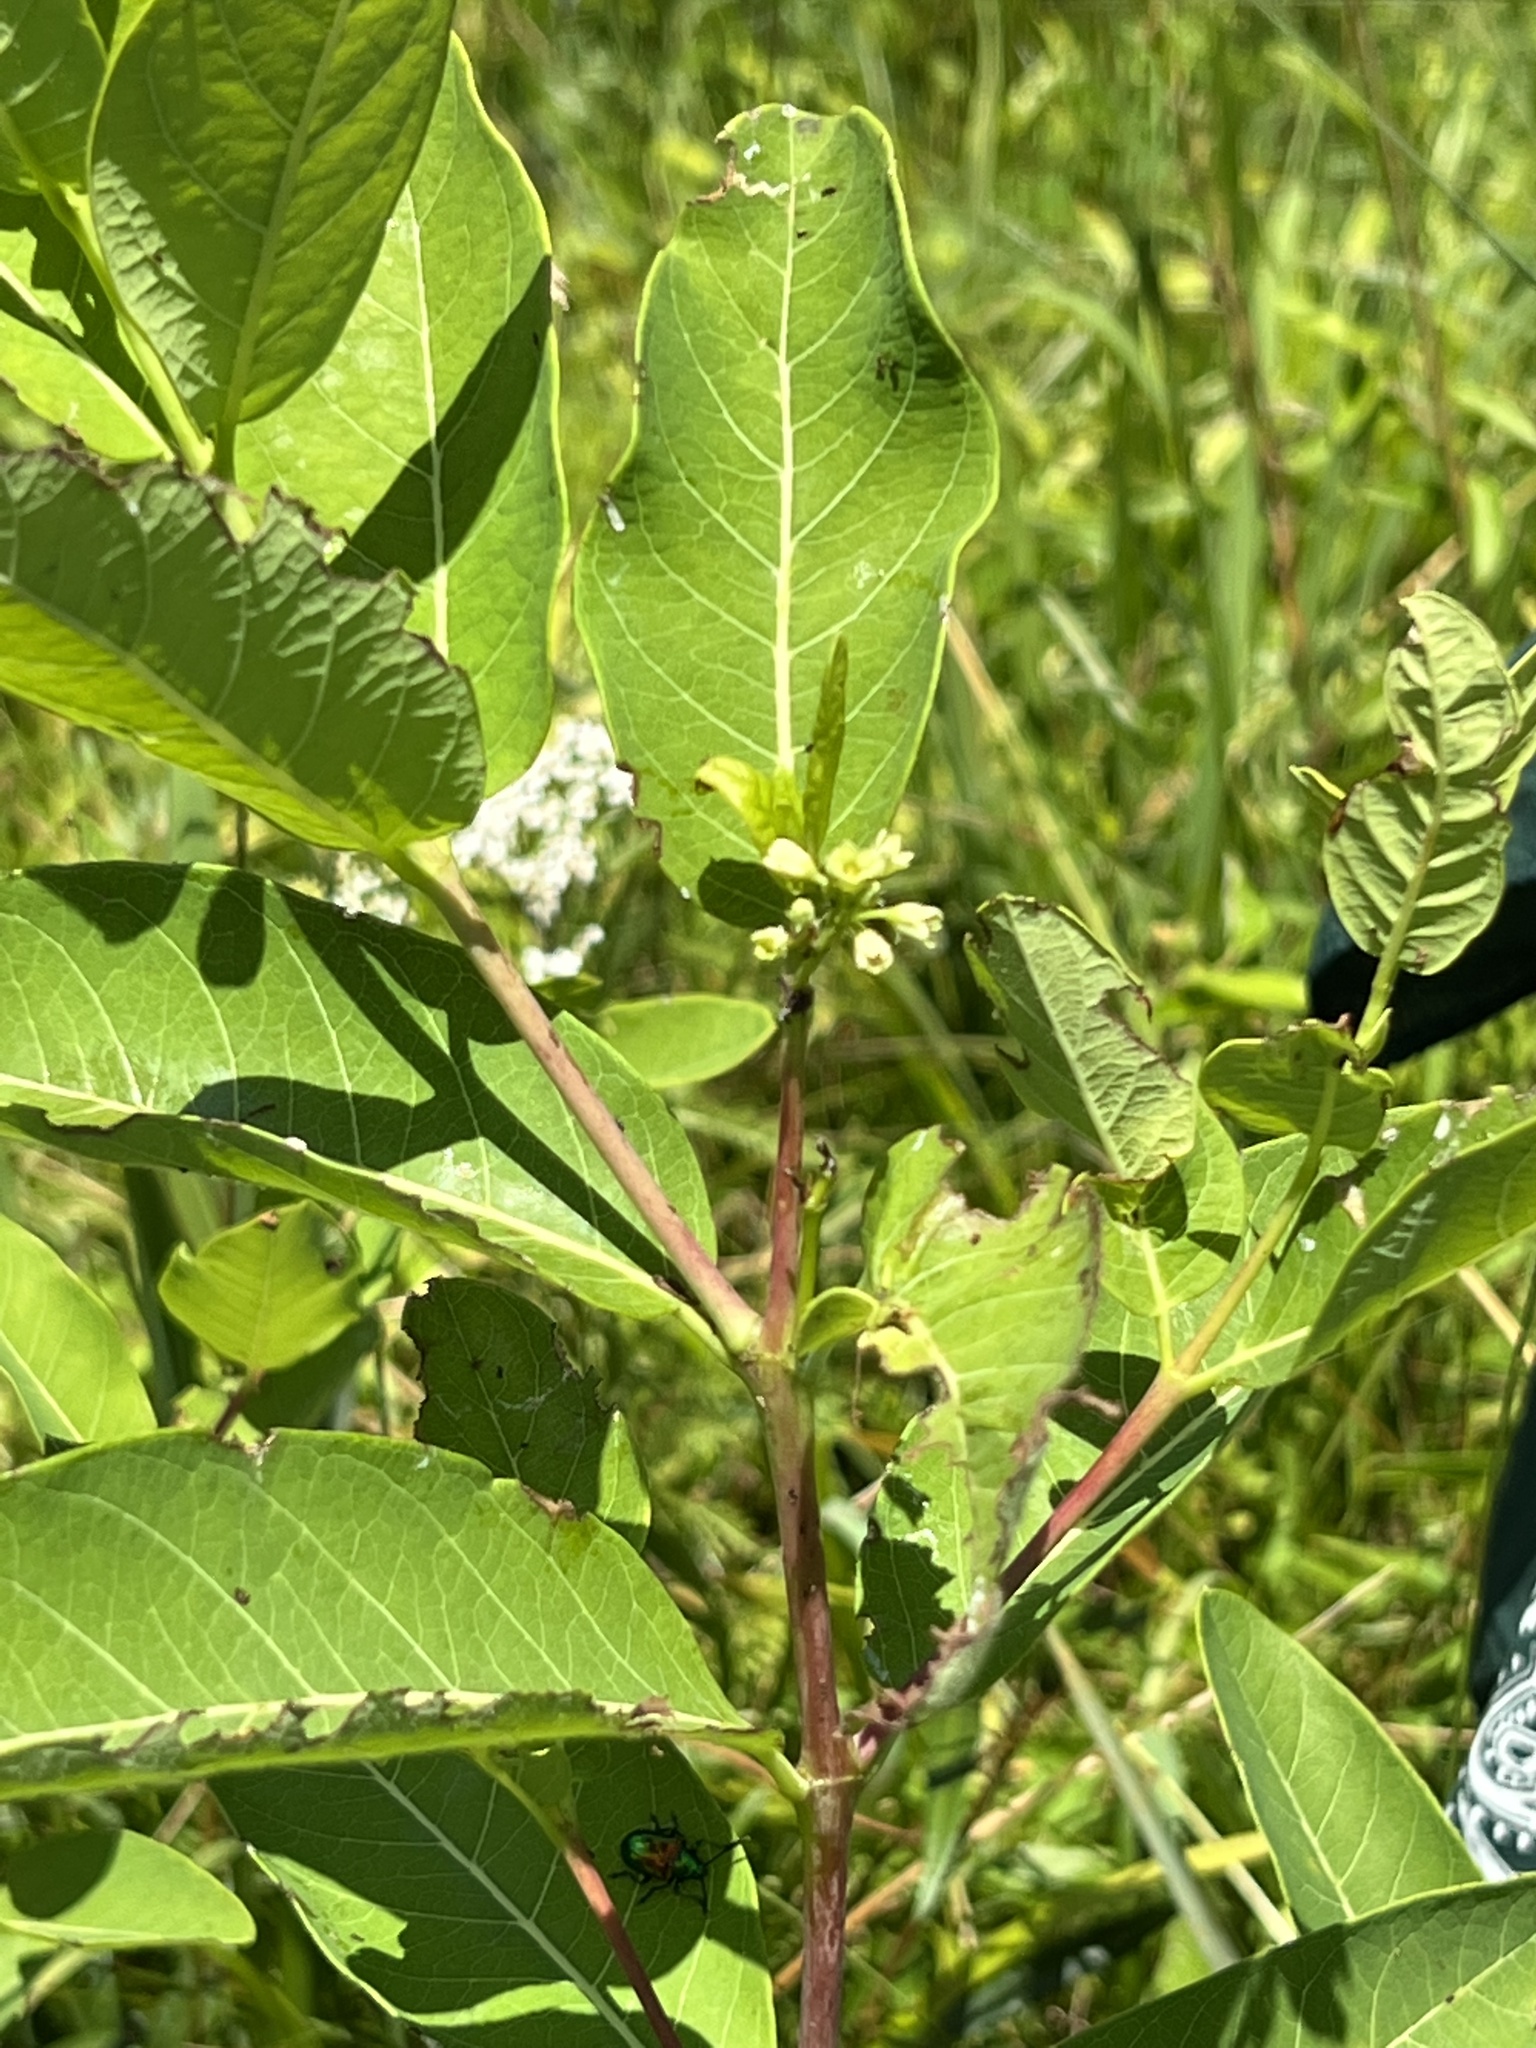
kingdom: Plantae
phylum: Tracheophyta
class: Magnoliopsida
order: Gentianales
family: Apocynaceae
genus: Apocynum
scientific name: Apocynum cannabinum
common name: Hemp dogbane
